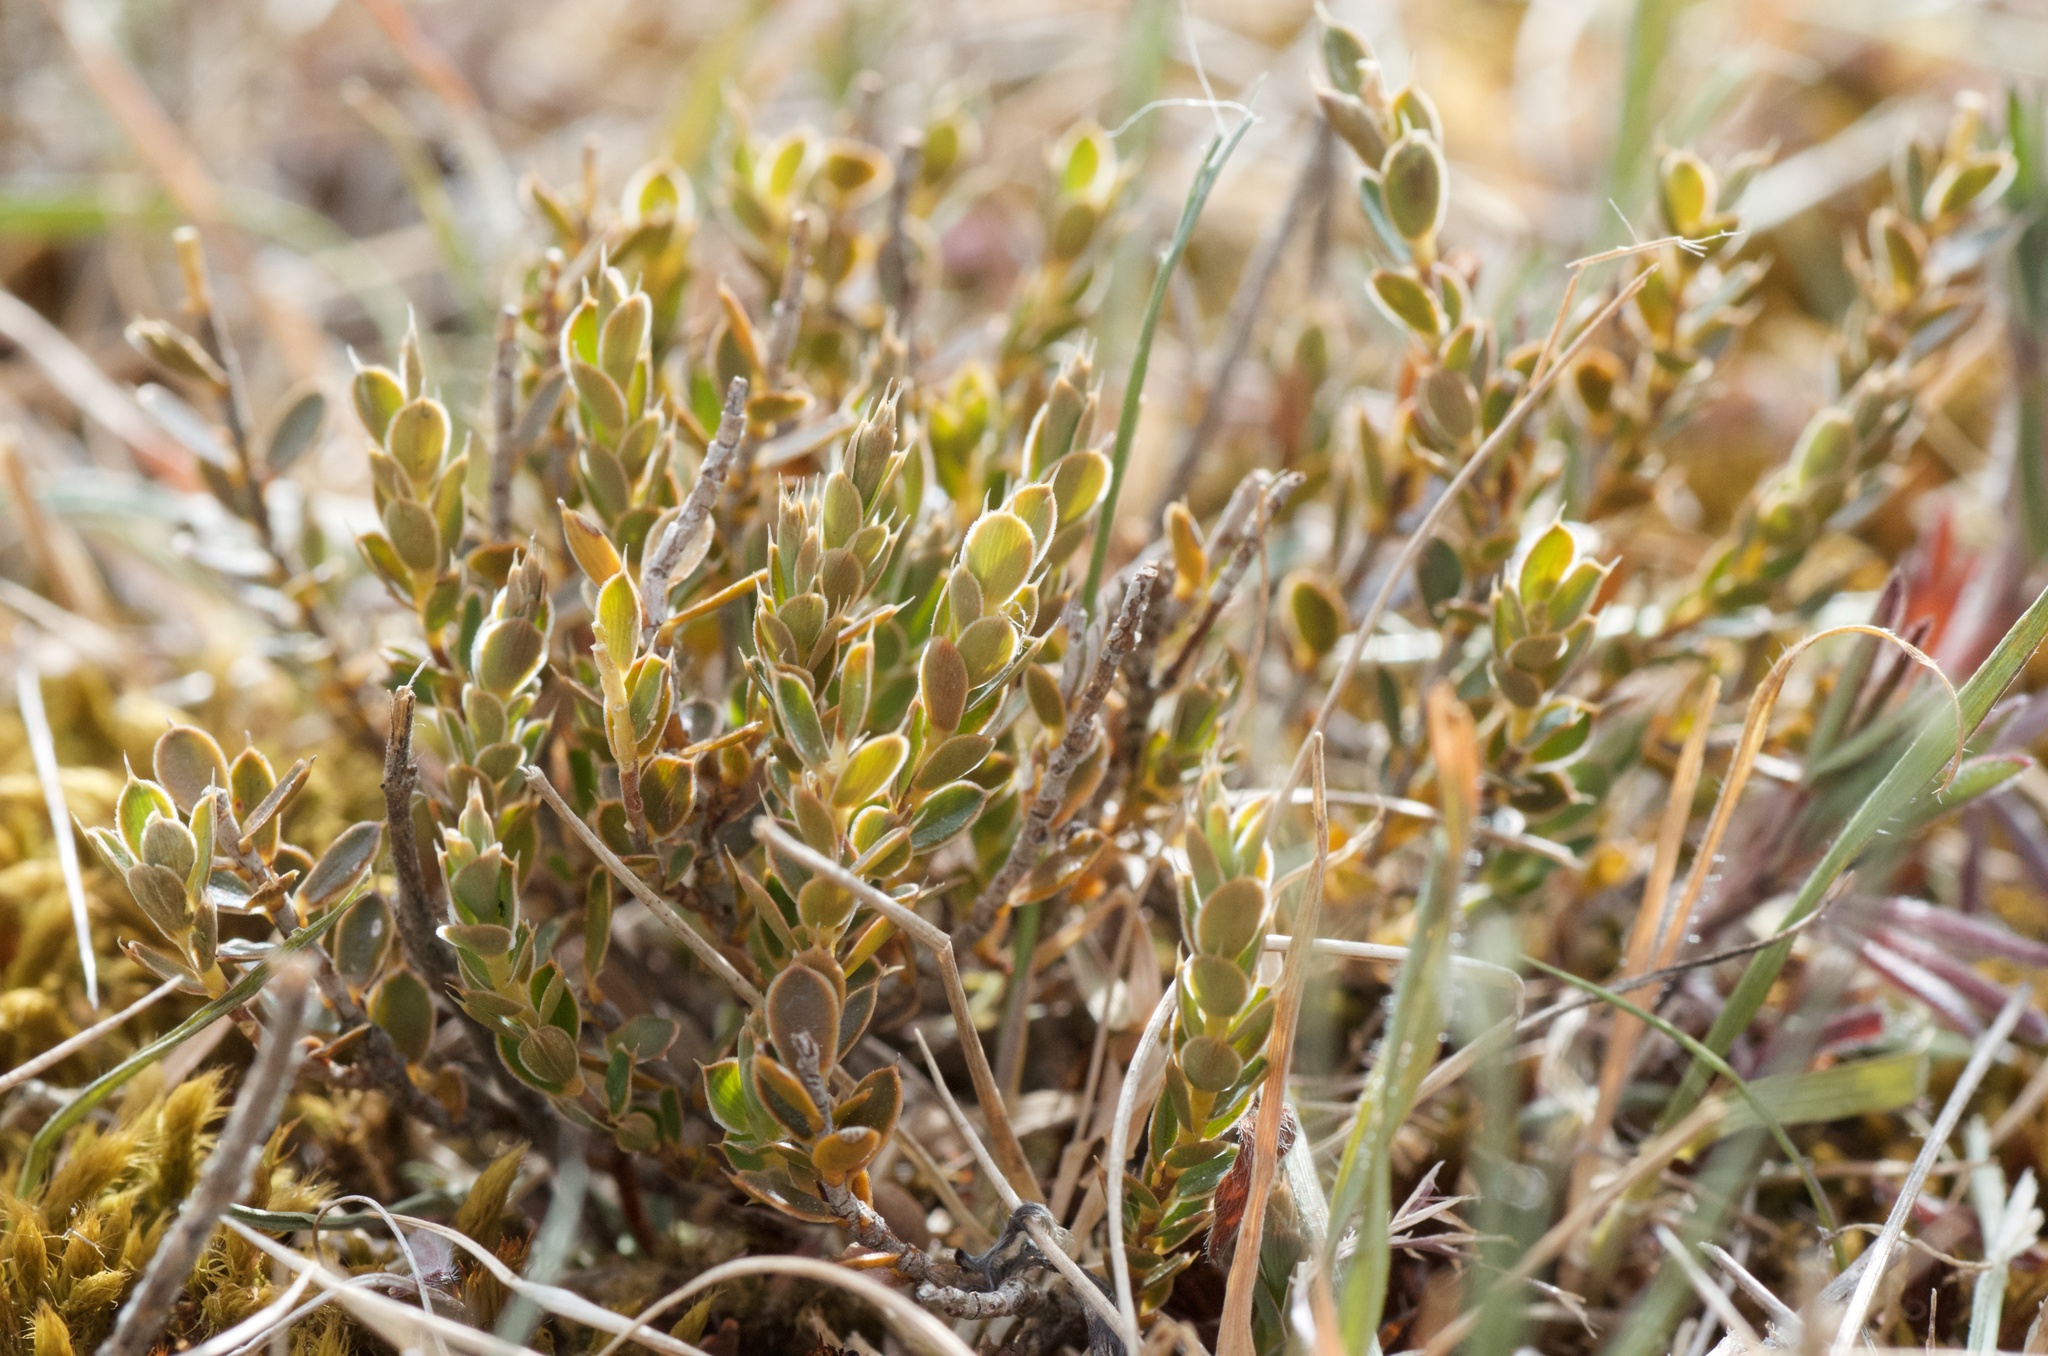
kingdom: Plantae
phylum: Tracheophyta
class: Magnoliopsida
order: Ericales
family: Ericaceae
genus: Styphelia
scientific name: Styphelia nesophila
